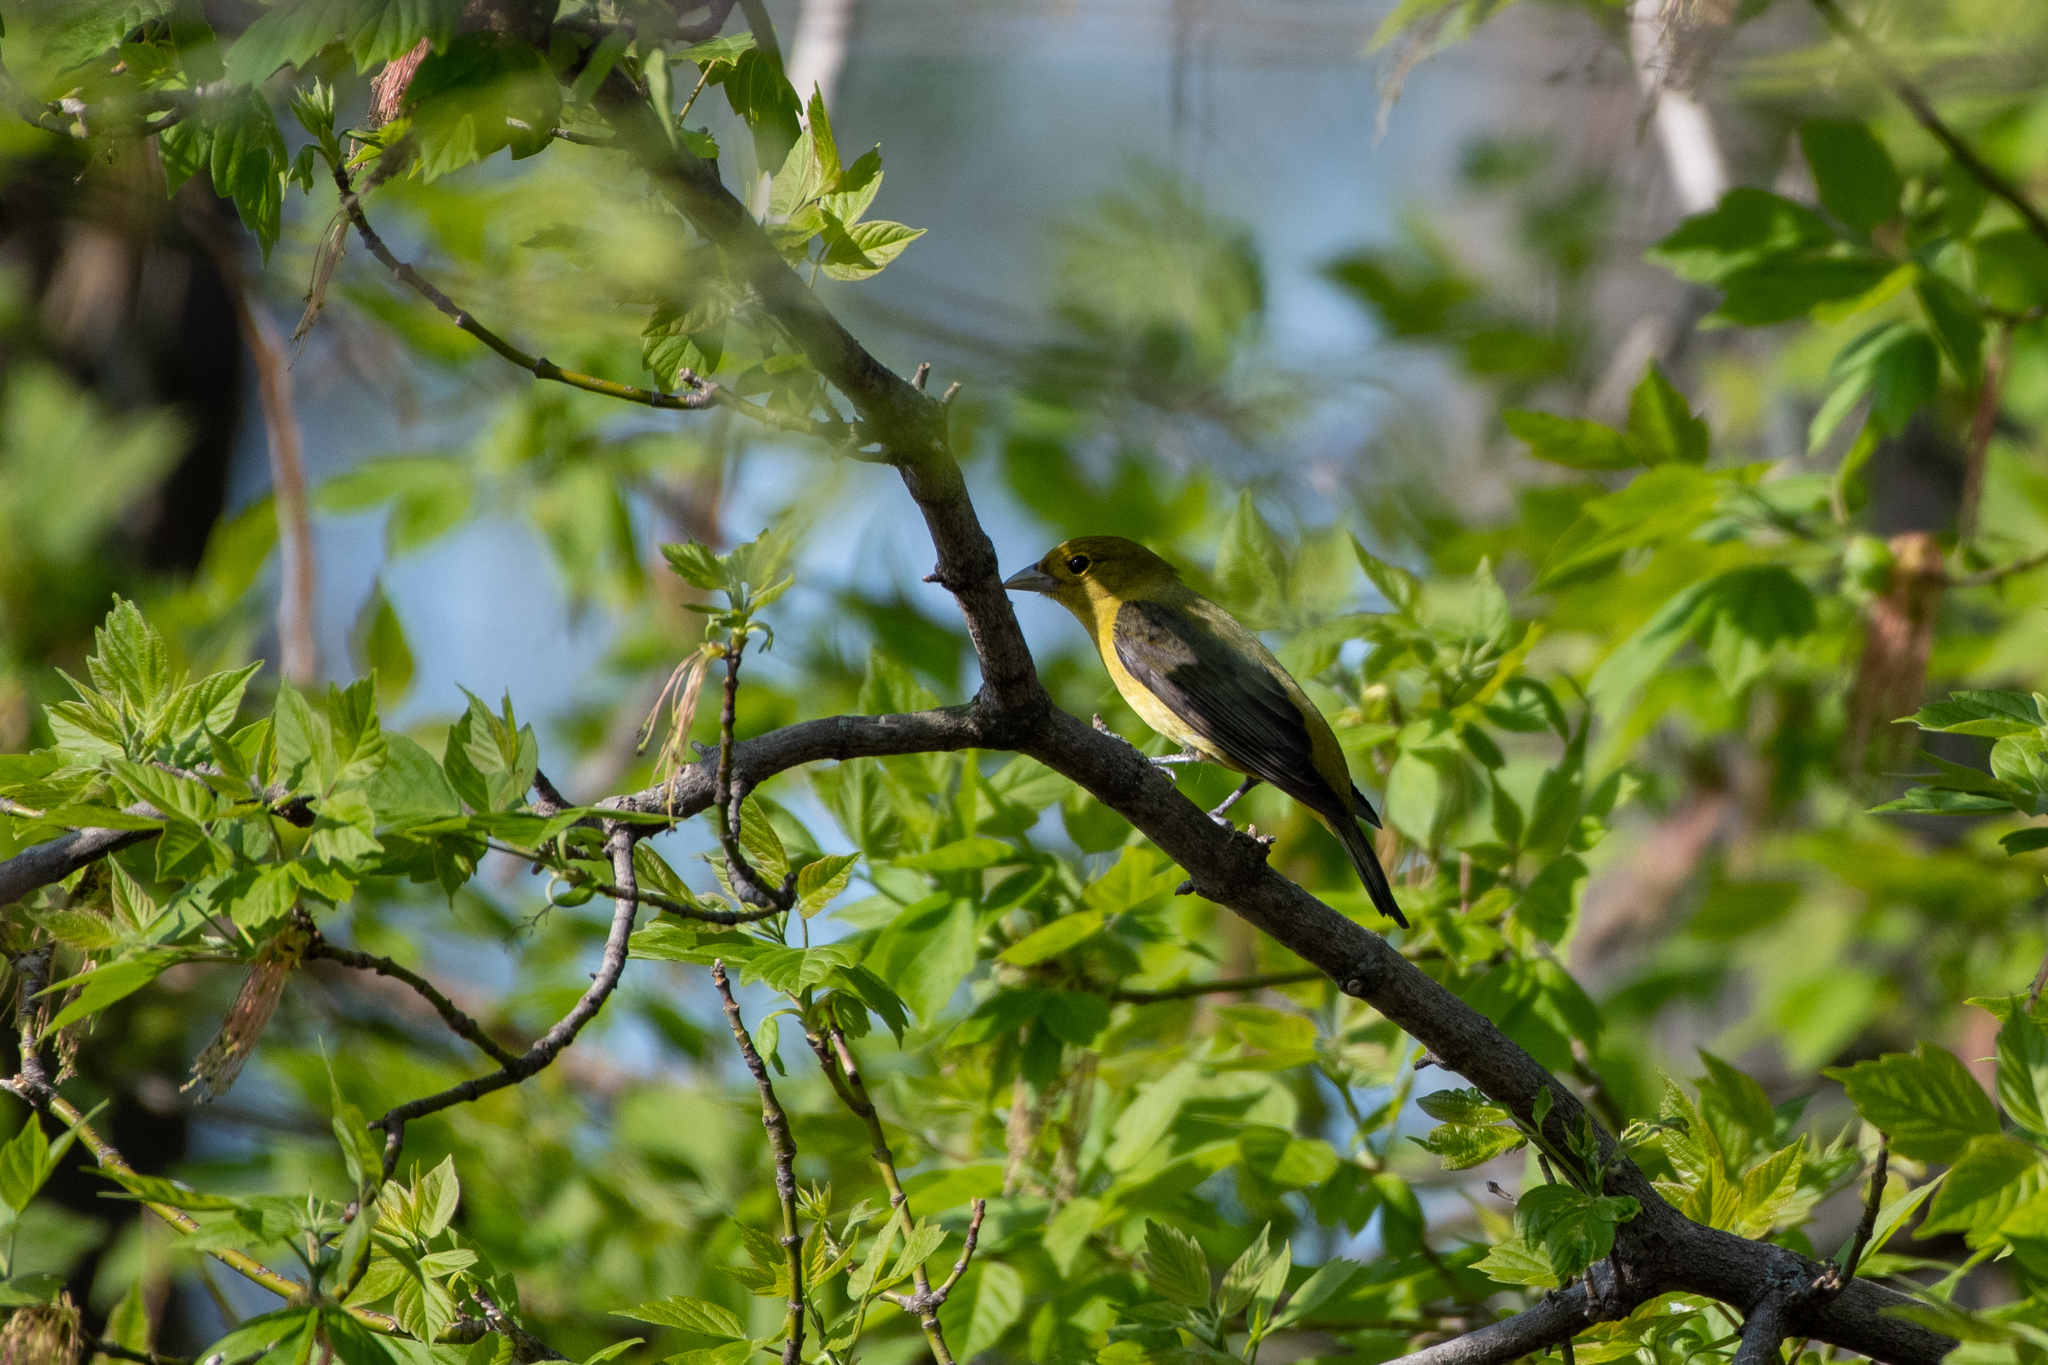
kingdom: Animalia
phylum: Chordata
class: Aves
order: Passeriformes
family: Cardinalidae
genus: Piranga
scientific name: Piranga olivacea
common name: Scarlet tanager
